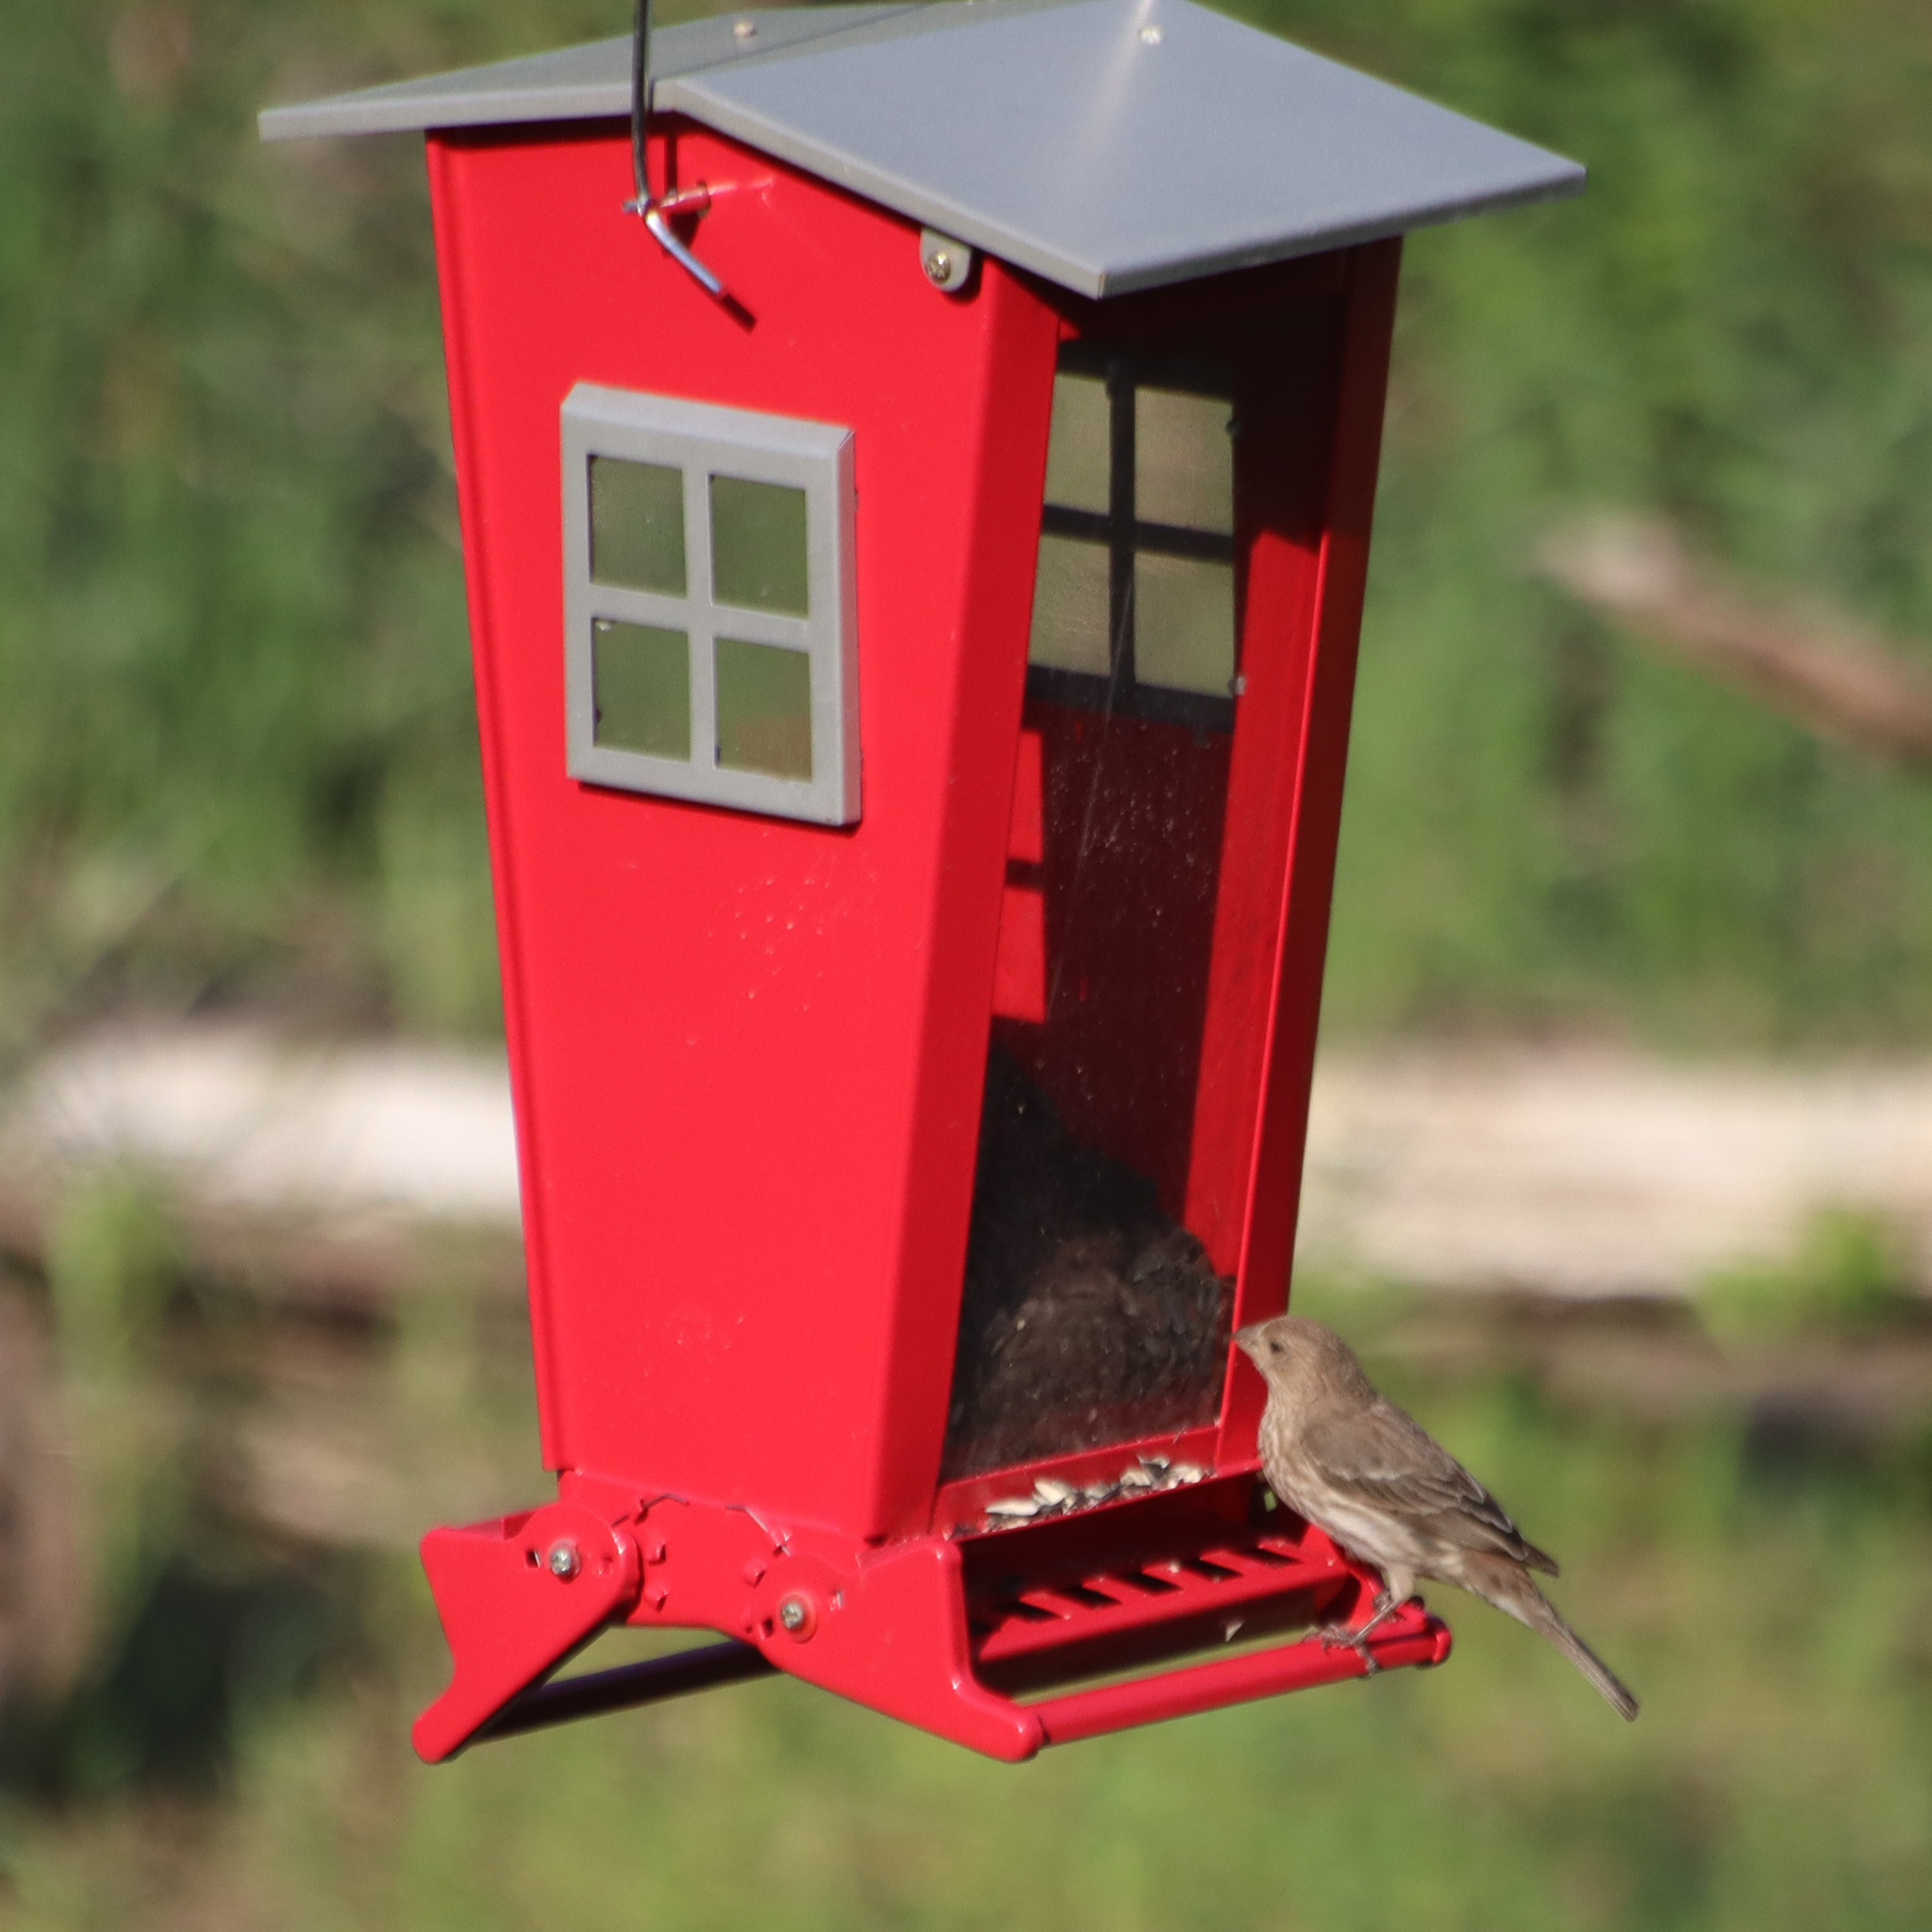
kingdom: Animalia
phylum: Chordata
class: Aves
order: Passeriformes
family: Fringillidae
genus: Haemorhous
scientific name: Haemorhous mexicanus
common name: House finch
